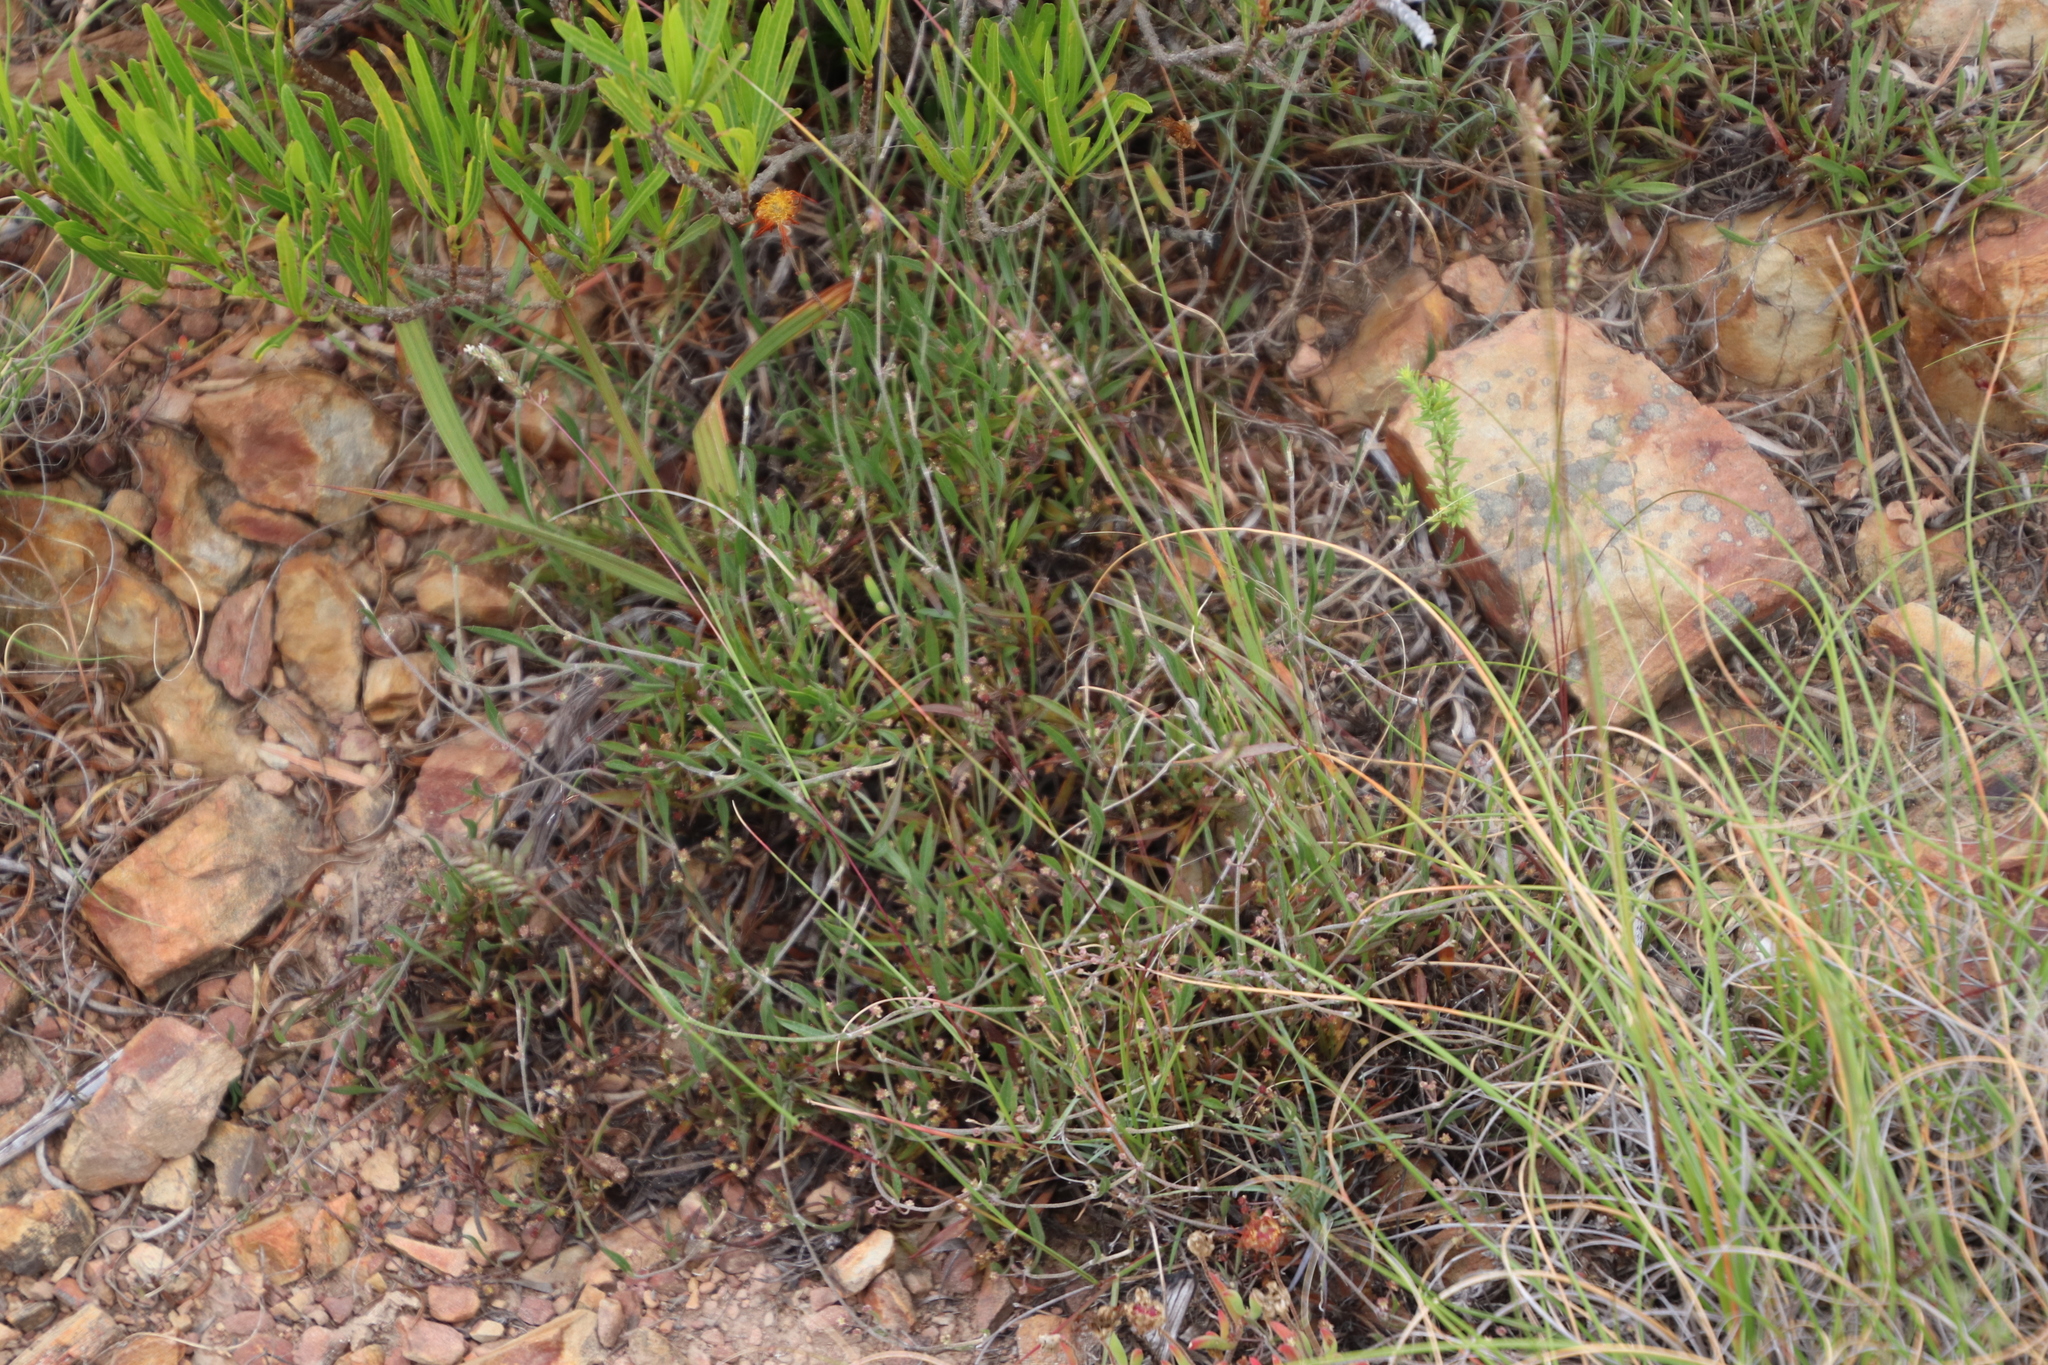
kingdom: Plantae
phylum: Tracheophyta
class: Magnoliopsida
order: Apiales
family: Apiaceae
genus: Centella
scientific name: Centella glabrata
